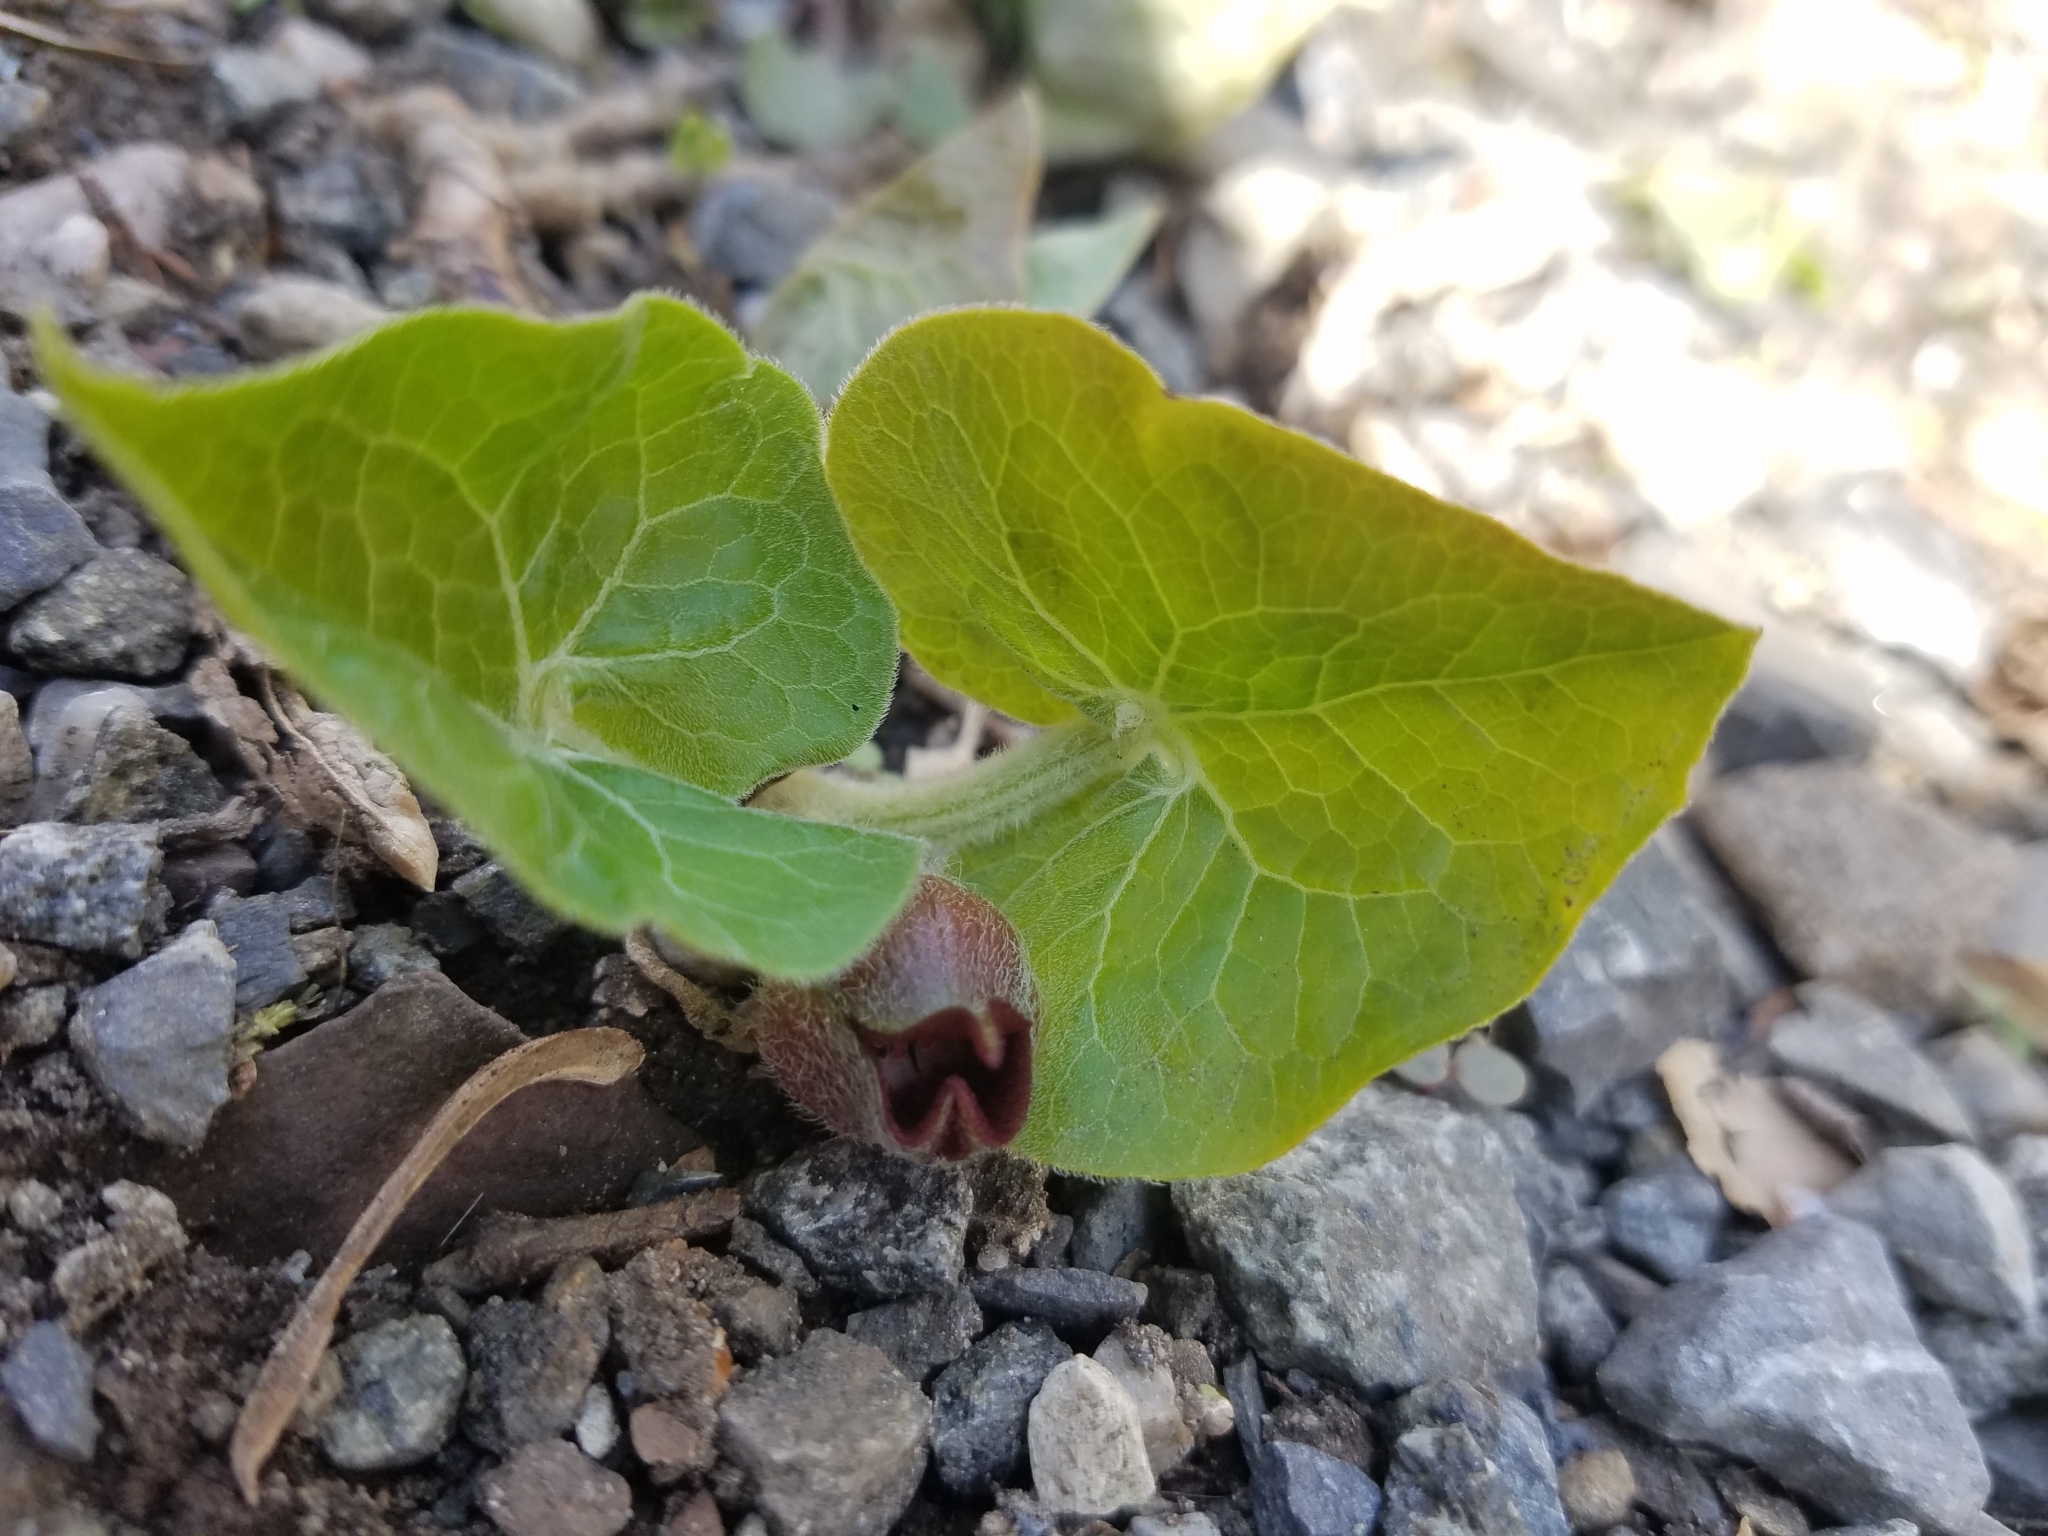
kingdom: Plantae
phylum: Tracheophyta
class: Magnoliopsida
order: Piperales
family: Aristolochiaceae
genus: Asarum
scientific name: Asarum canadense
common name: Wild ginger
